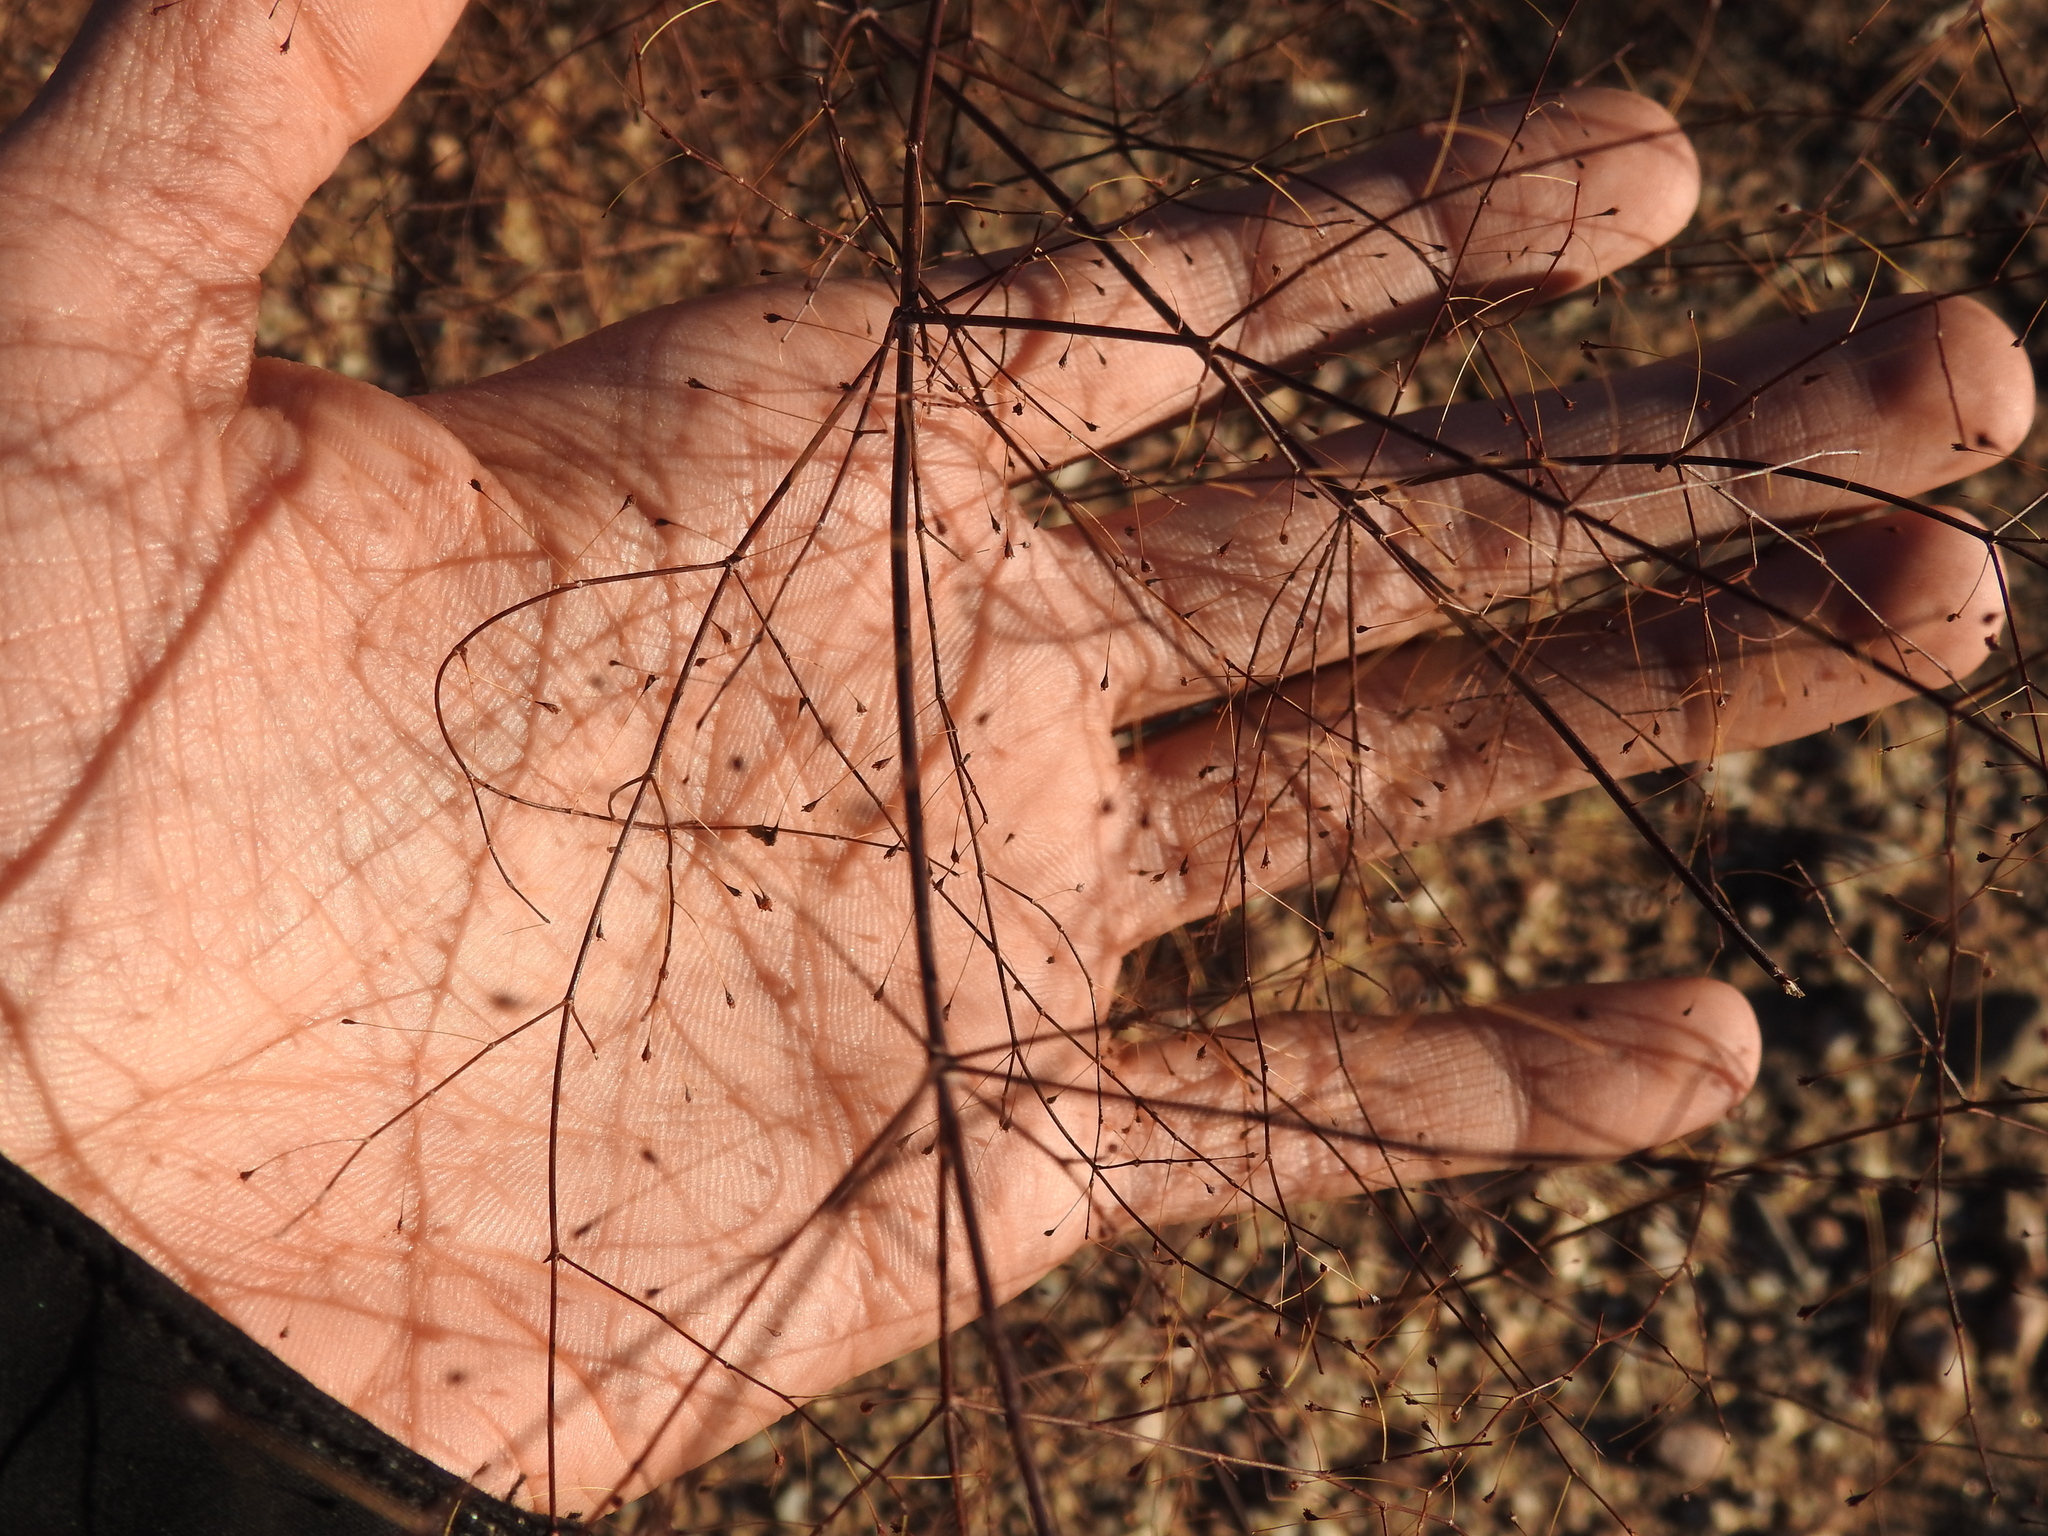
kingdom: Plantae
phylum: Tracheophyta
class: Magnoliopsida
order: Caryophyllales
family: Polygonaceae
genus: Eriogonum
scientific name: Eriogonum trichopes
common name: Little desert trumpet
